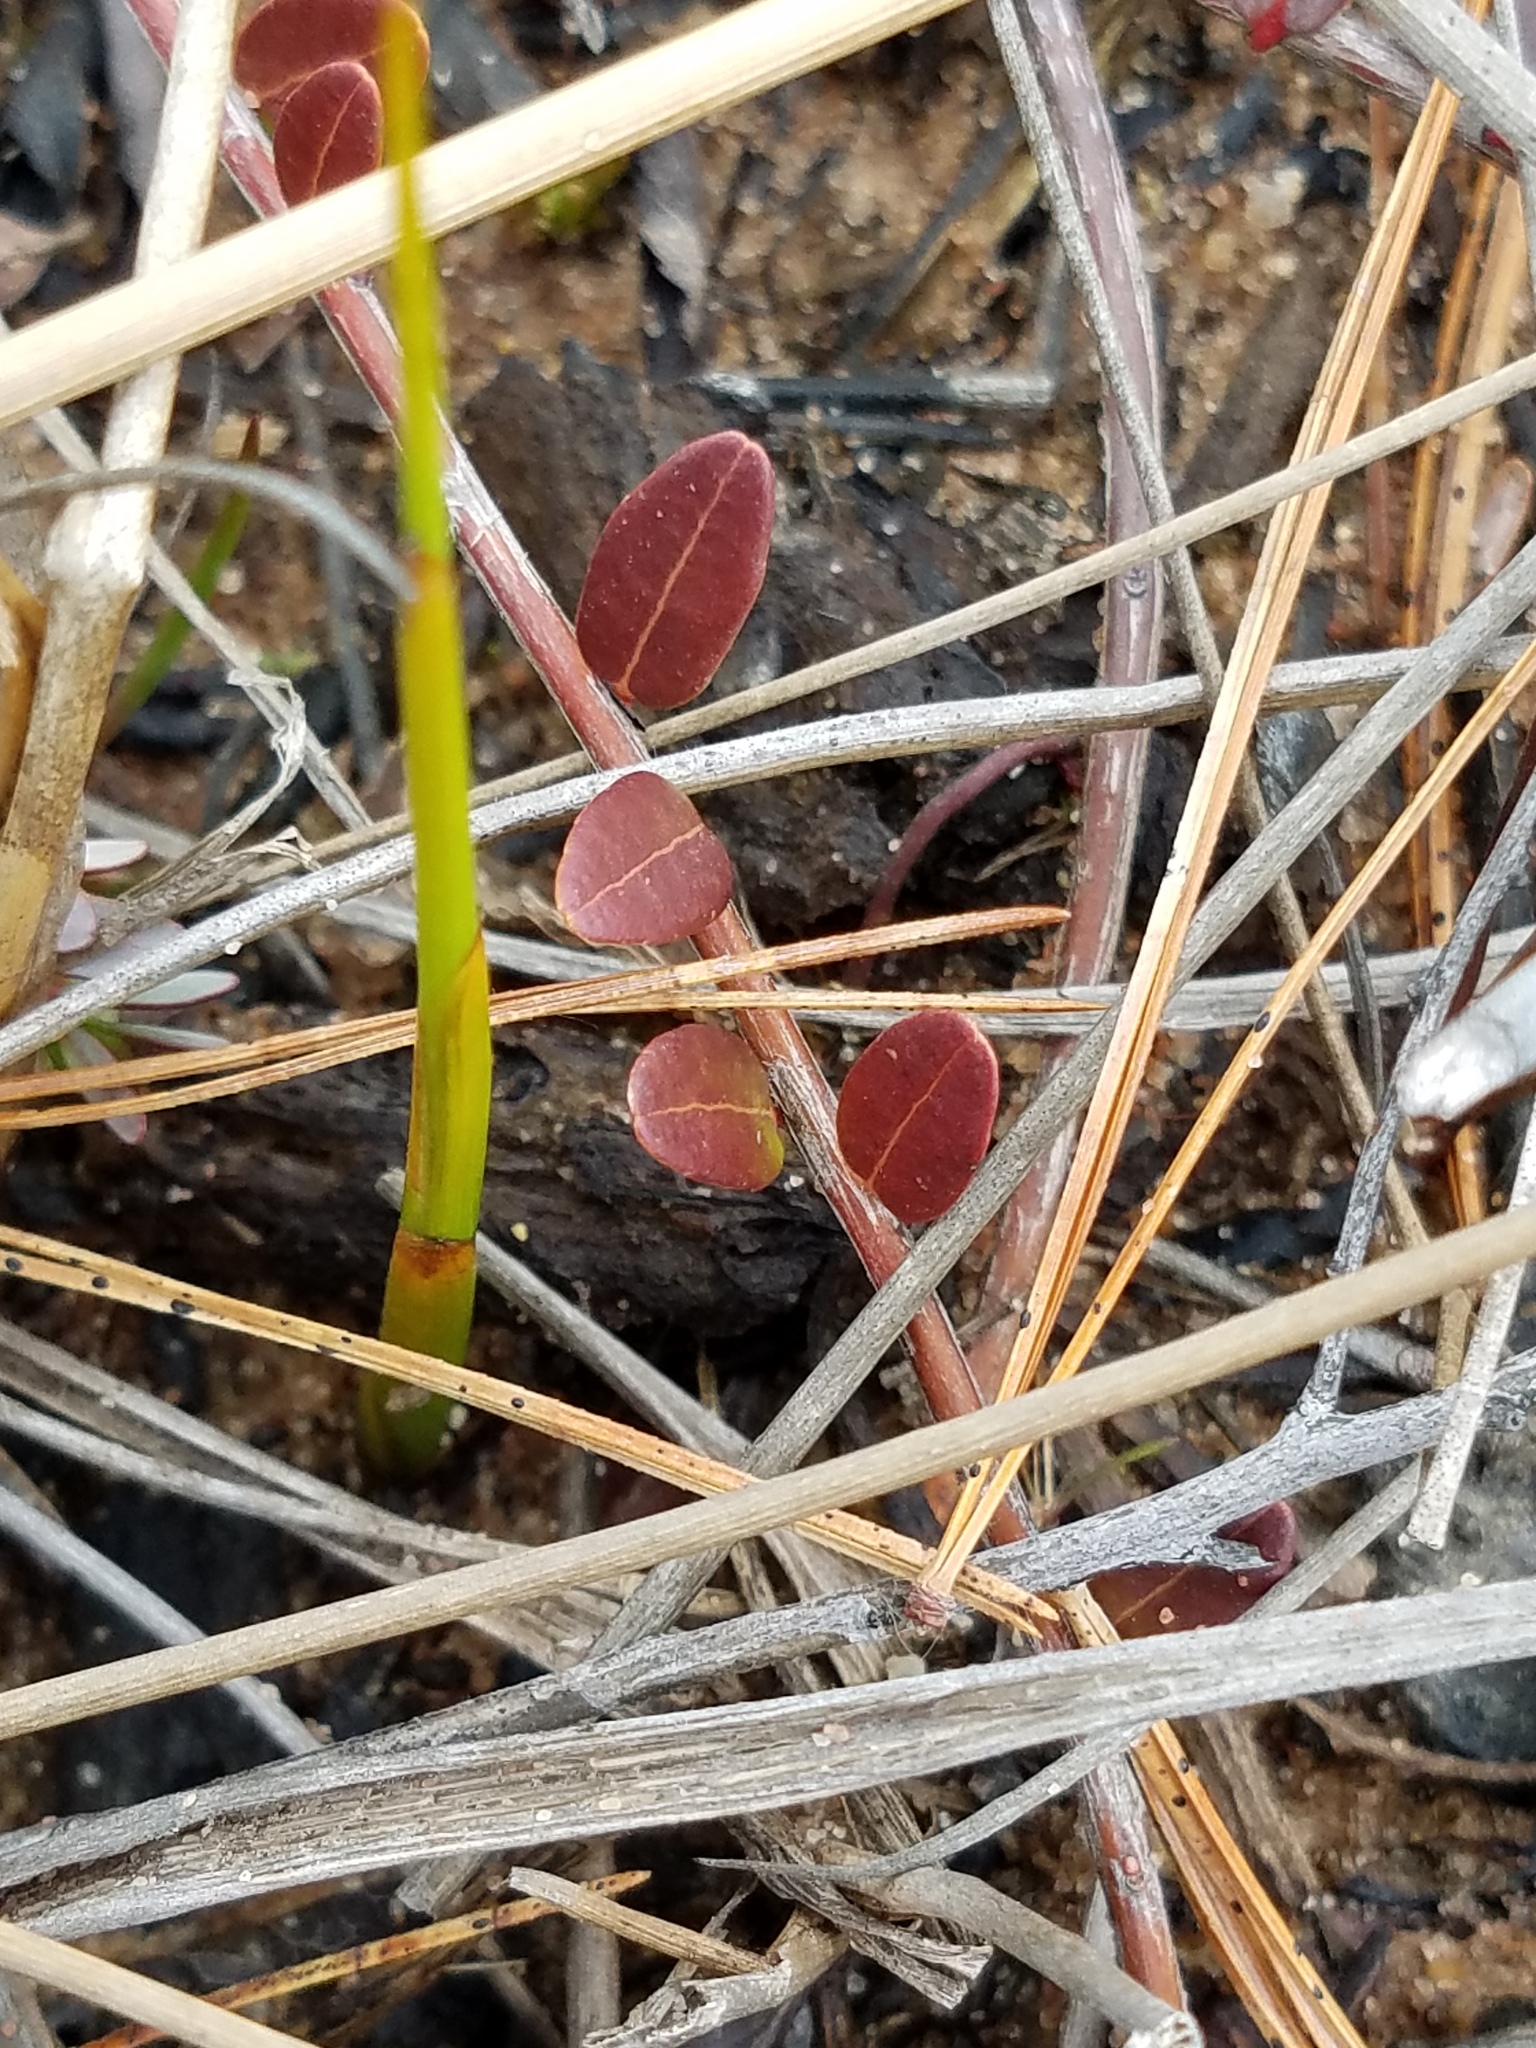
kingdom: Plantae
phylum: Tracheophyta
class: Magnoliopsida
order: Ericales
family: Ericaceae
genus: Vaccinium
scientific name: Vaccinium macrocarpon
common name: American cranberry
